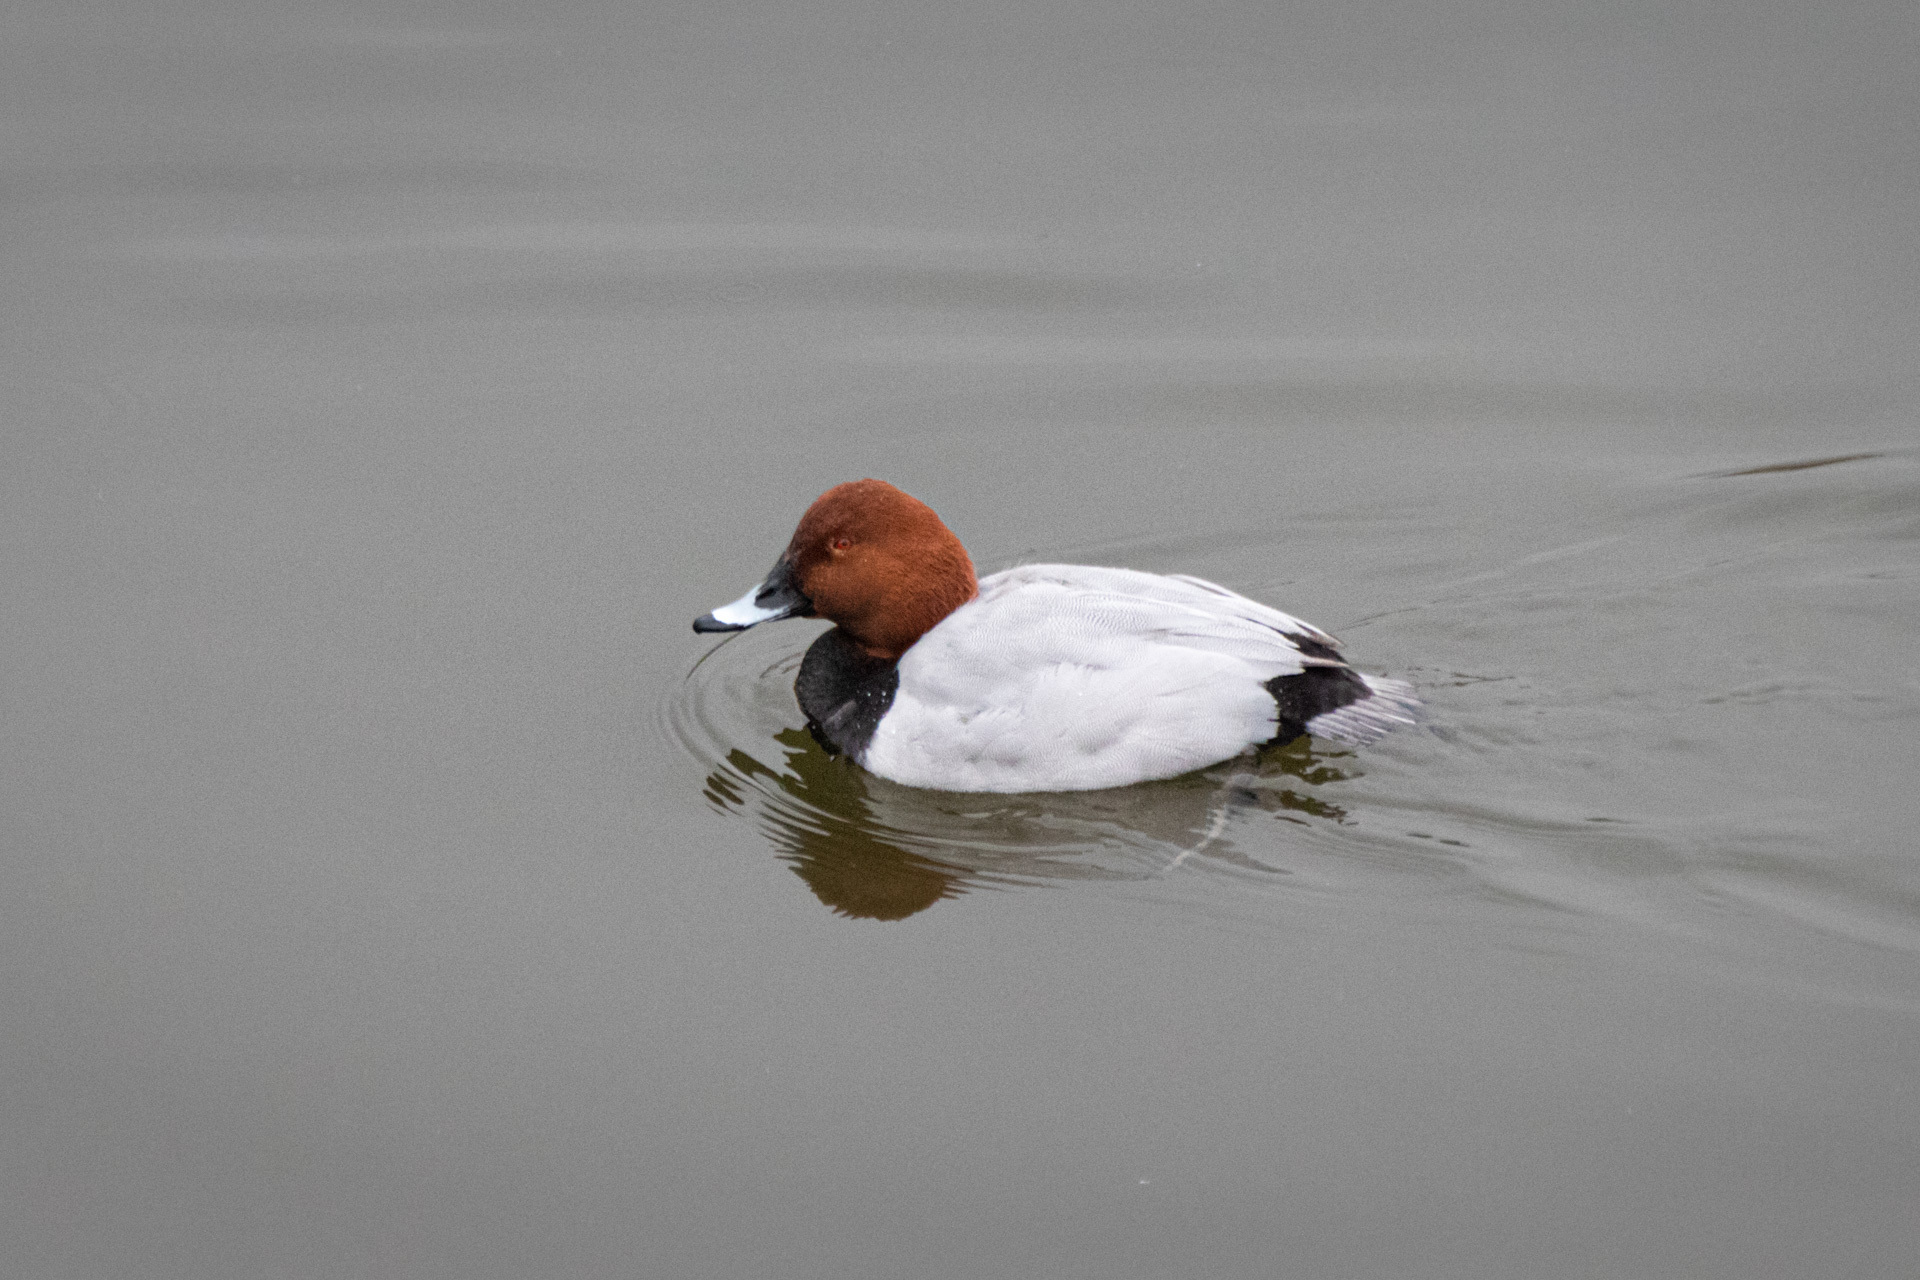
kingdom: Animalia
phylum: Chordata
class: Aves
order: Anseriformes
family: Anatidae
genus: Aythya
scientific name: Aythya ferina
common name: Common pochard
